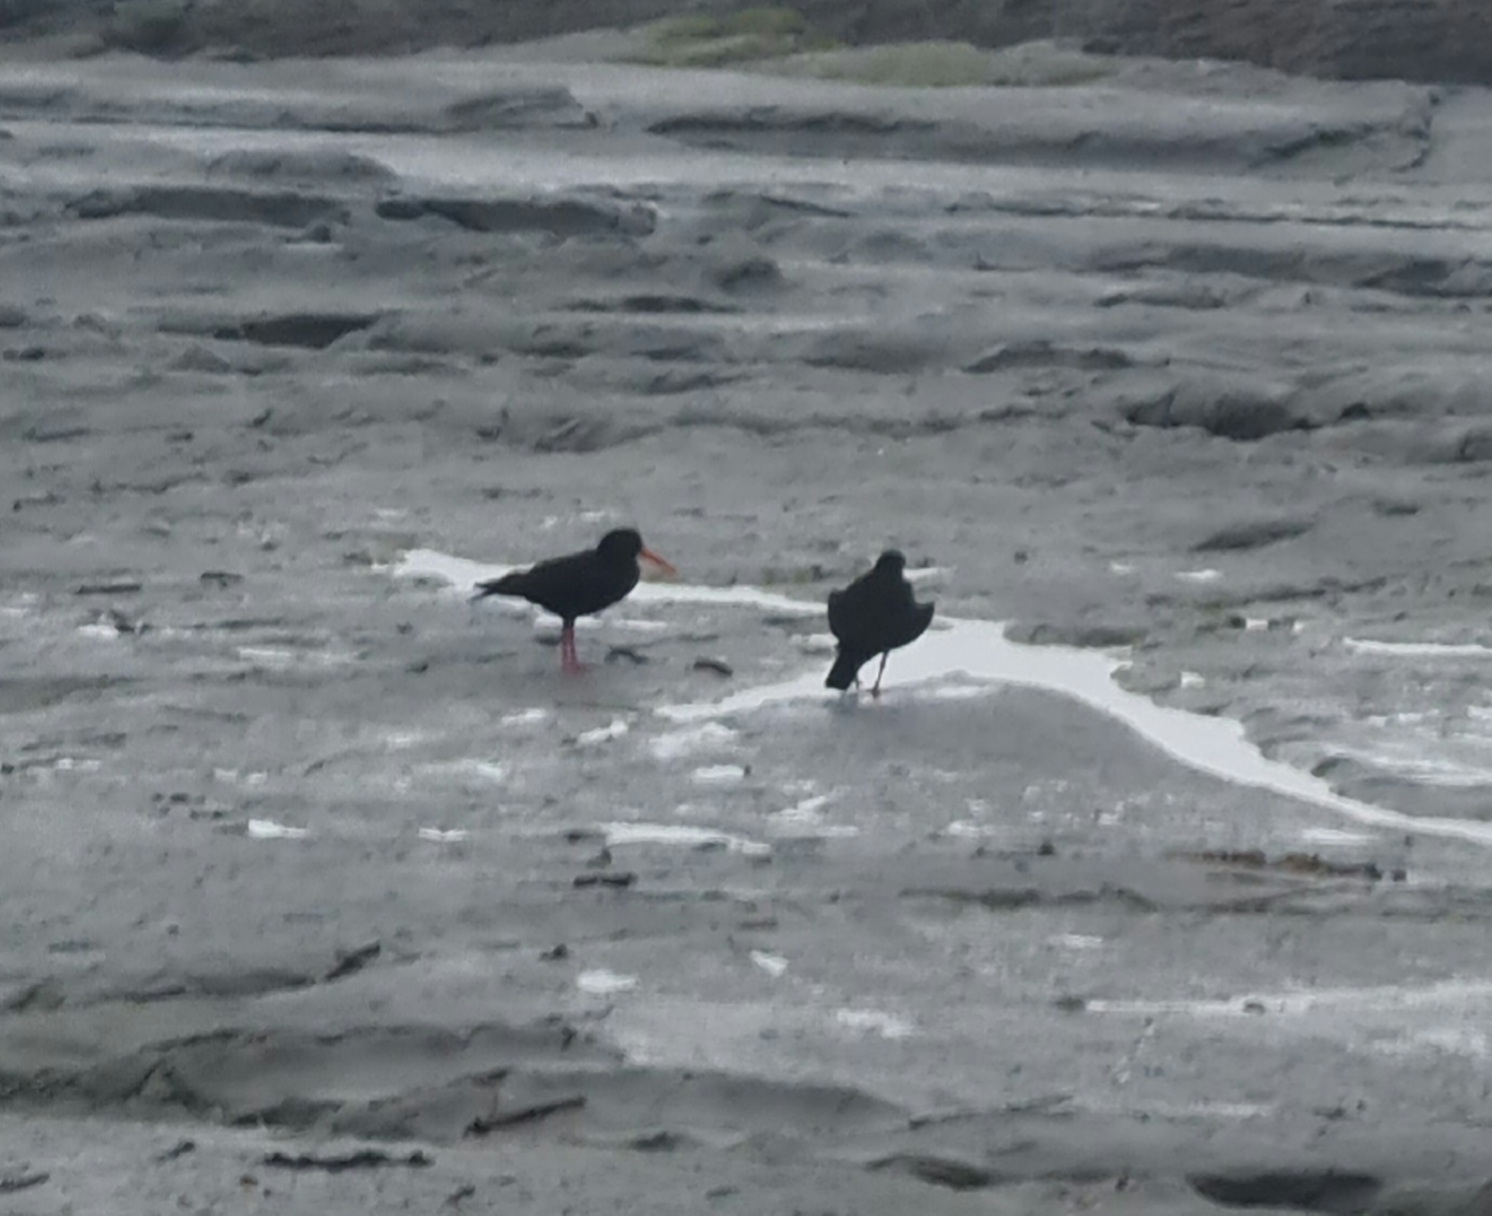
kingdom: Animalia
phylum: Chordata
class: Aves
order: Charadriiformes
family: Haematopodidae
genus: Haematopus
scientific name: Haematopus unicolor
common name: Variable oystercatcher
